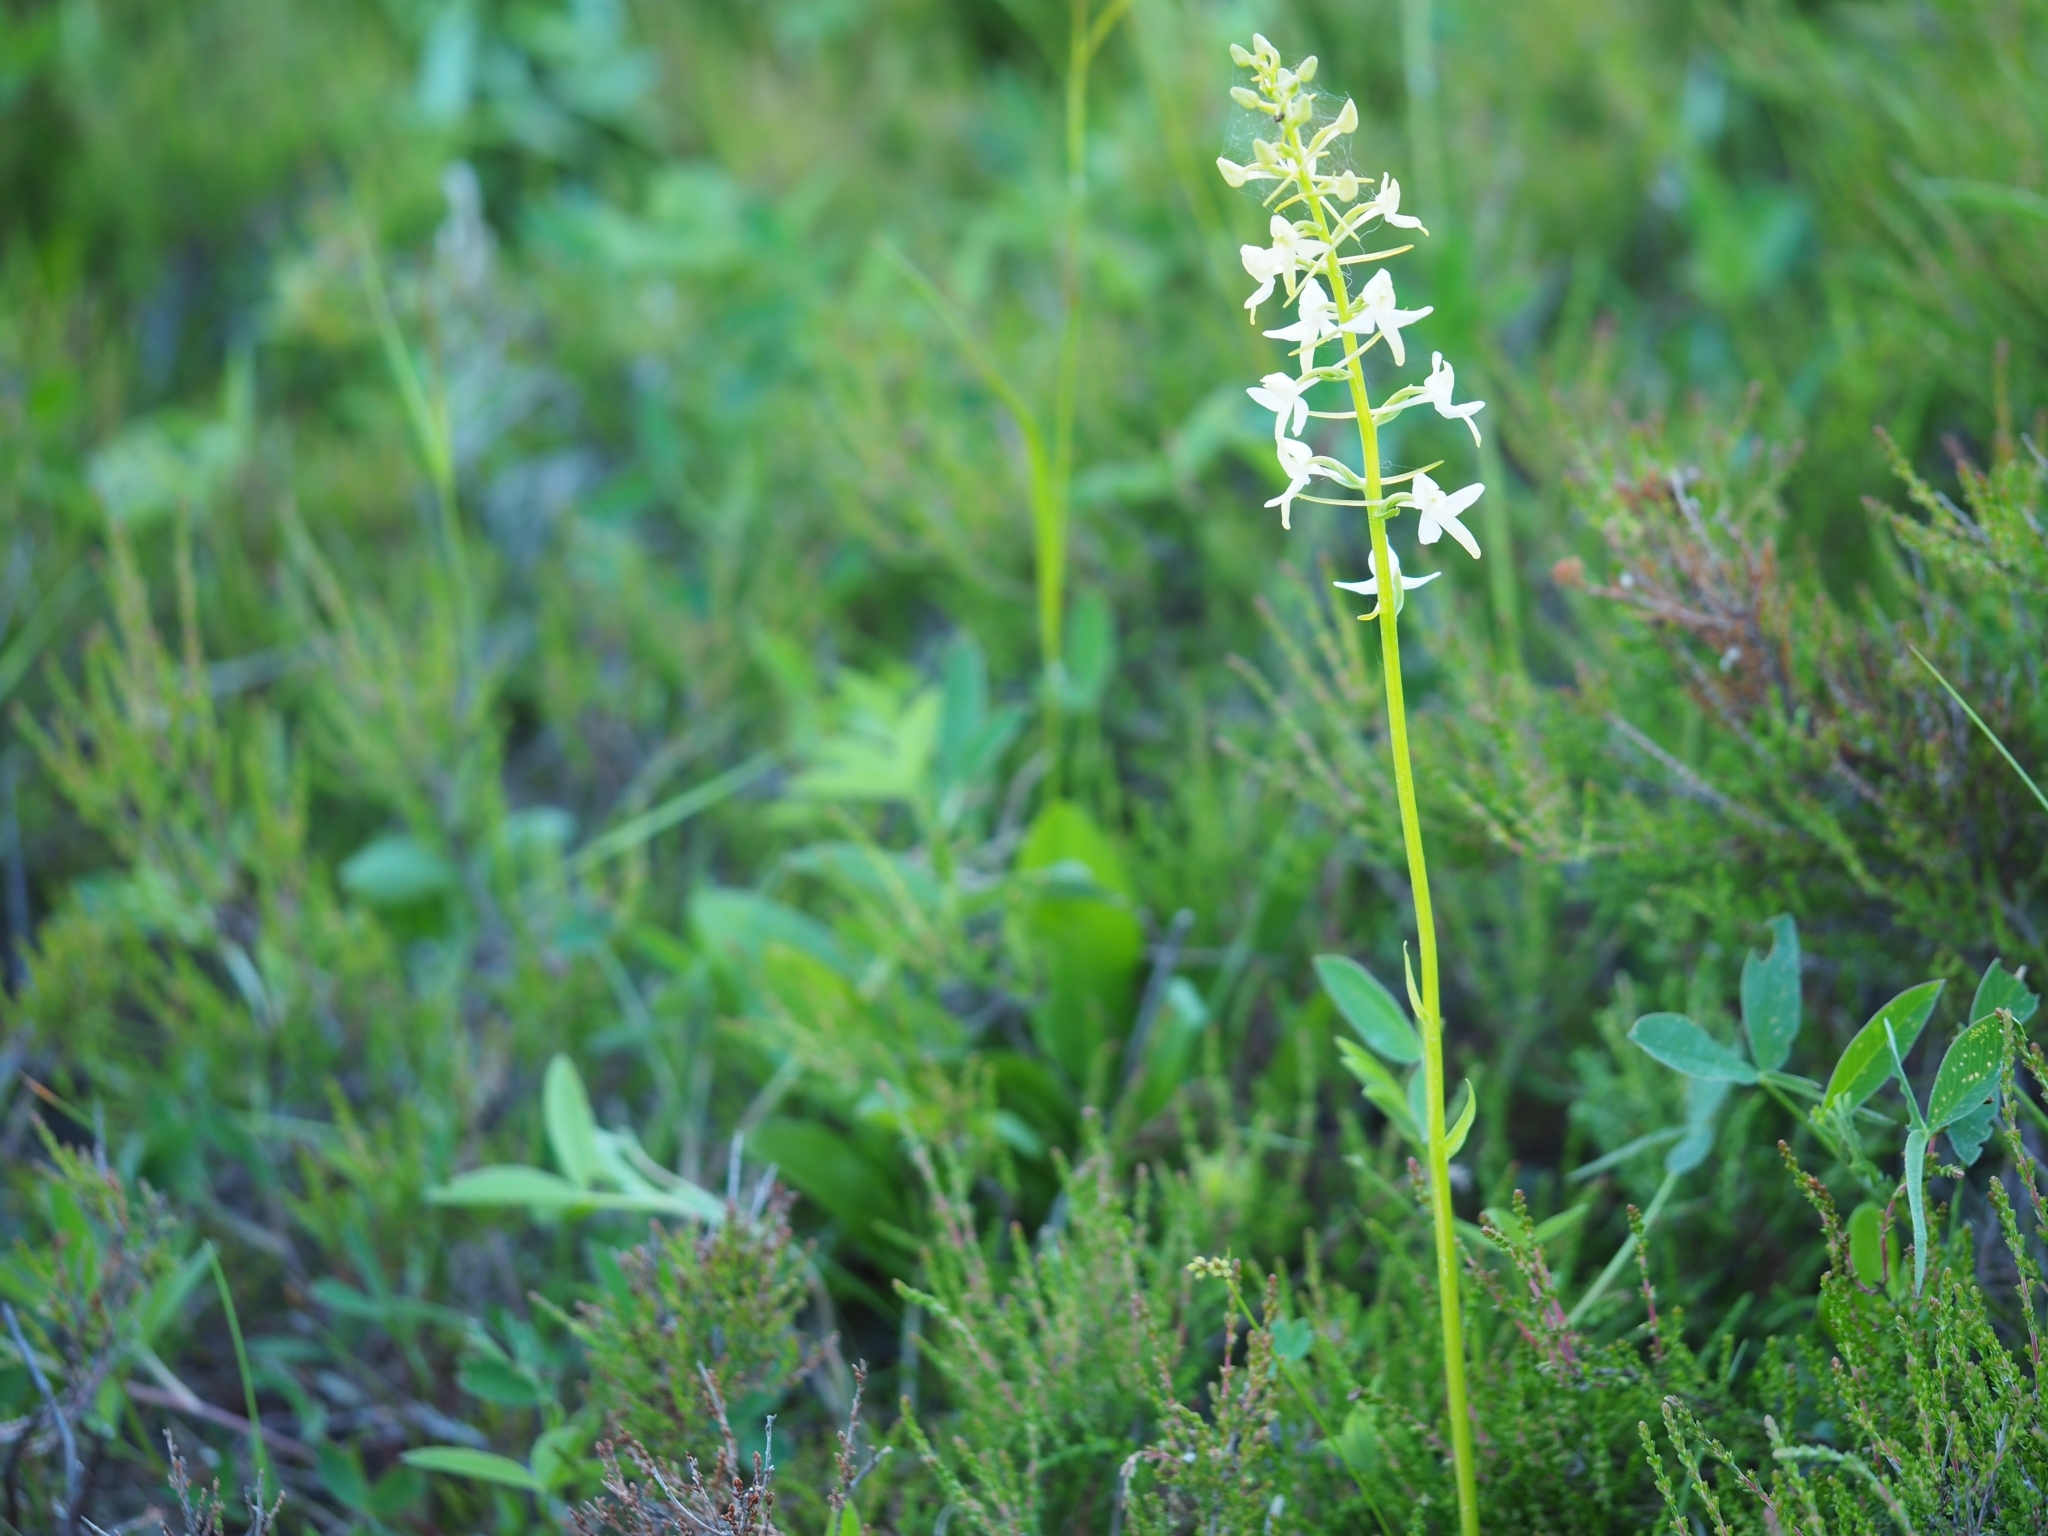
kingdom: Plantae
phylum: Tracheophyta
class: Liliopsida
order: Asparagales
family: Orchidaceae
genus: Platanthera
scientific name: Platanthera bifolia
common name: Lesser butterfly-orchid
